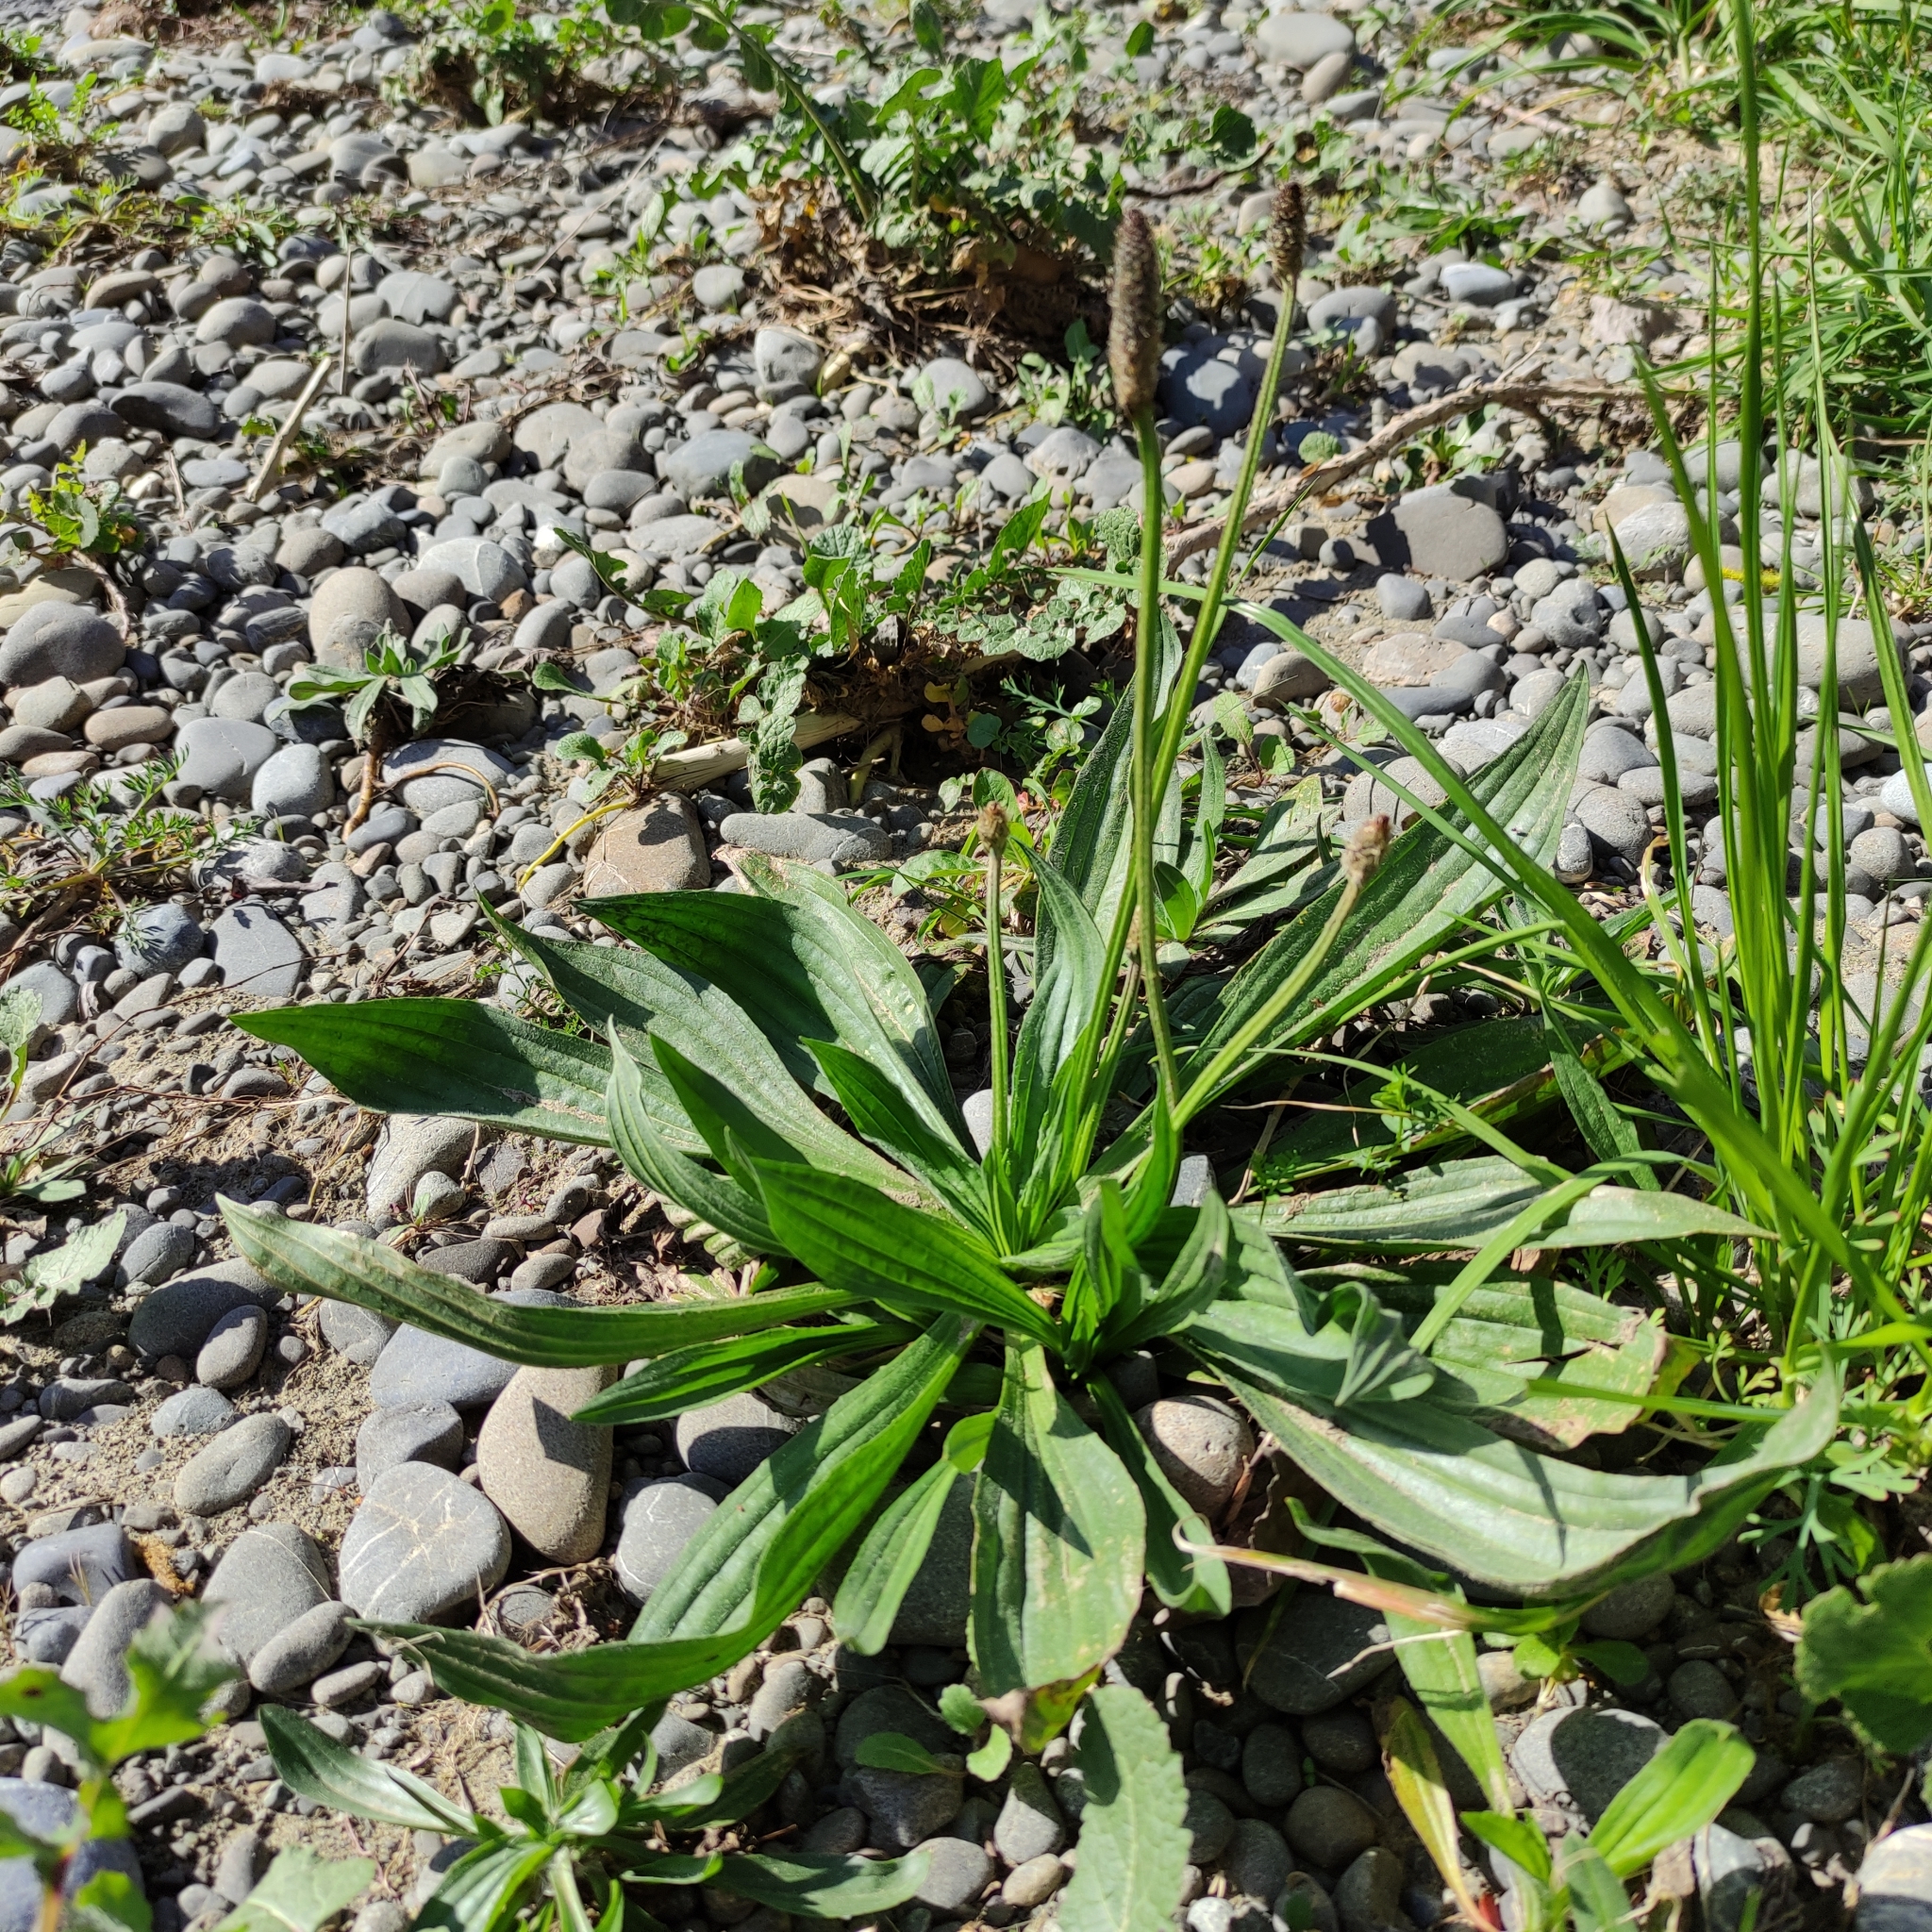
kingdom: Plantae
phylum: Tracheophyta
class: Magnoliopsida
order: Lamiales
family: Plantaginaceae
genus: Plantago
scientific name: Plantago lanceolata
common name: Ribwort plantain
